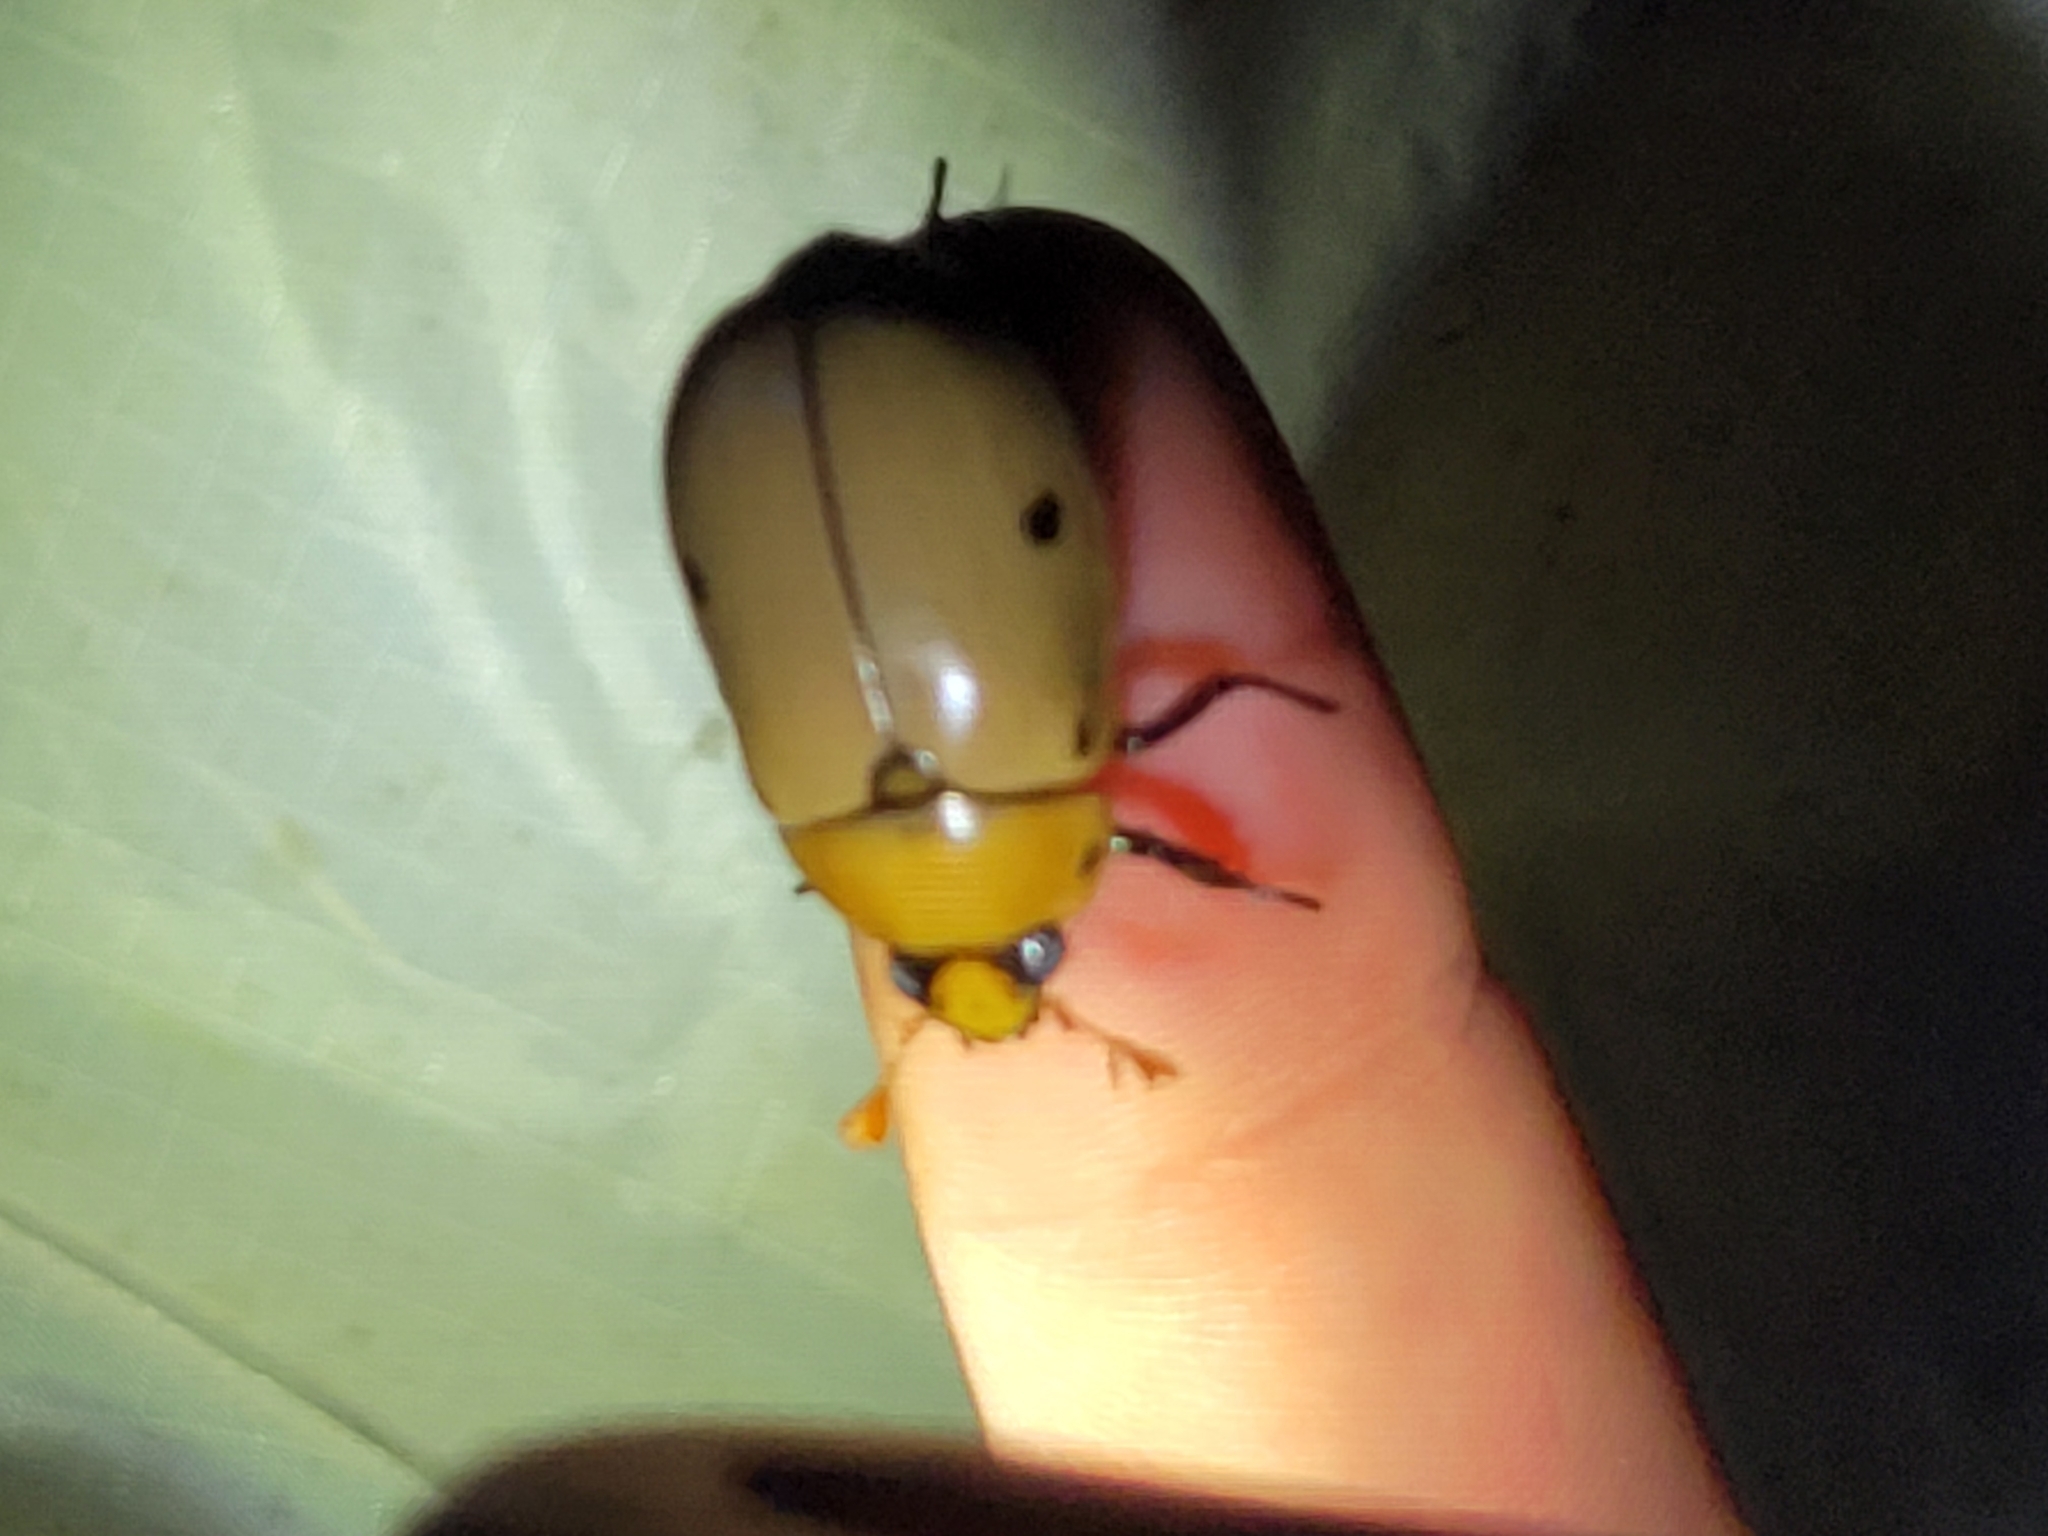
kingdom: Animalia
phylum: Arthropoda
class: Insecta
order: Coleoptera
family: Scarabaeidae
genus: Pelidnota
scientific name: Pelidnota punctata
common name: Grapevine beetle
